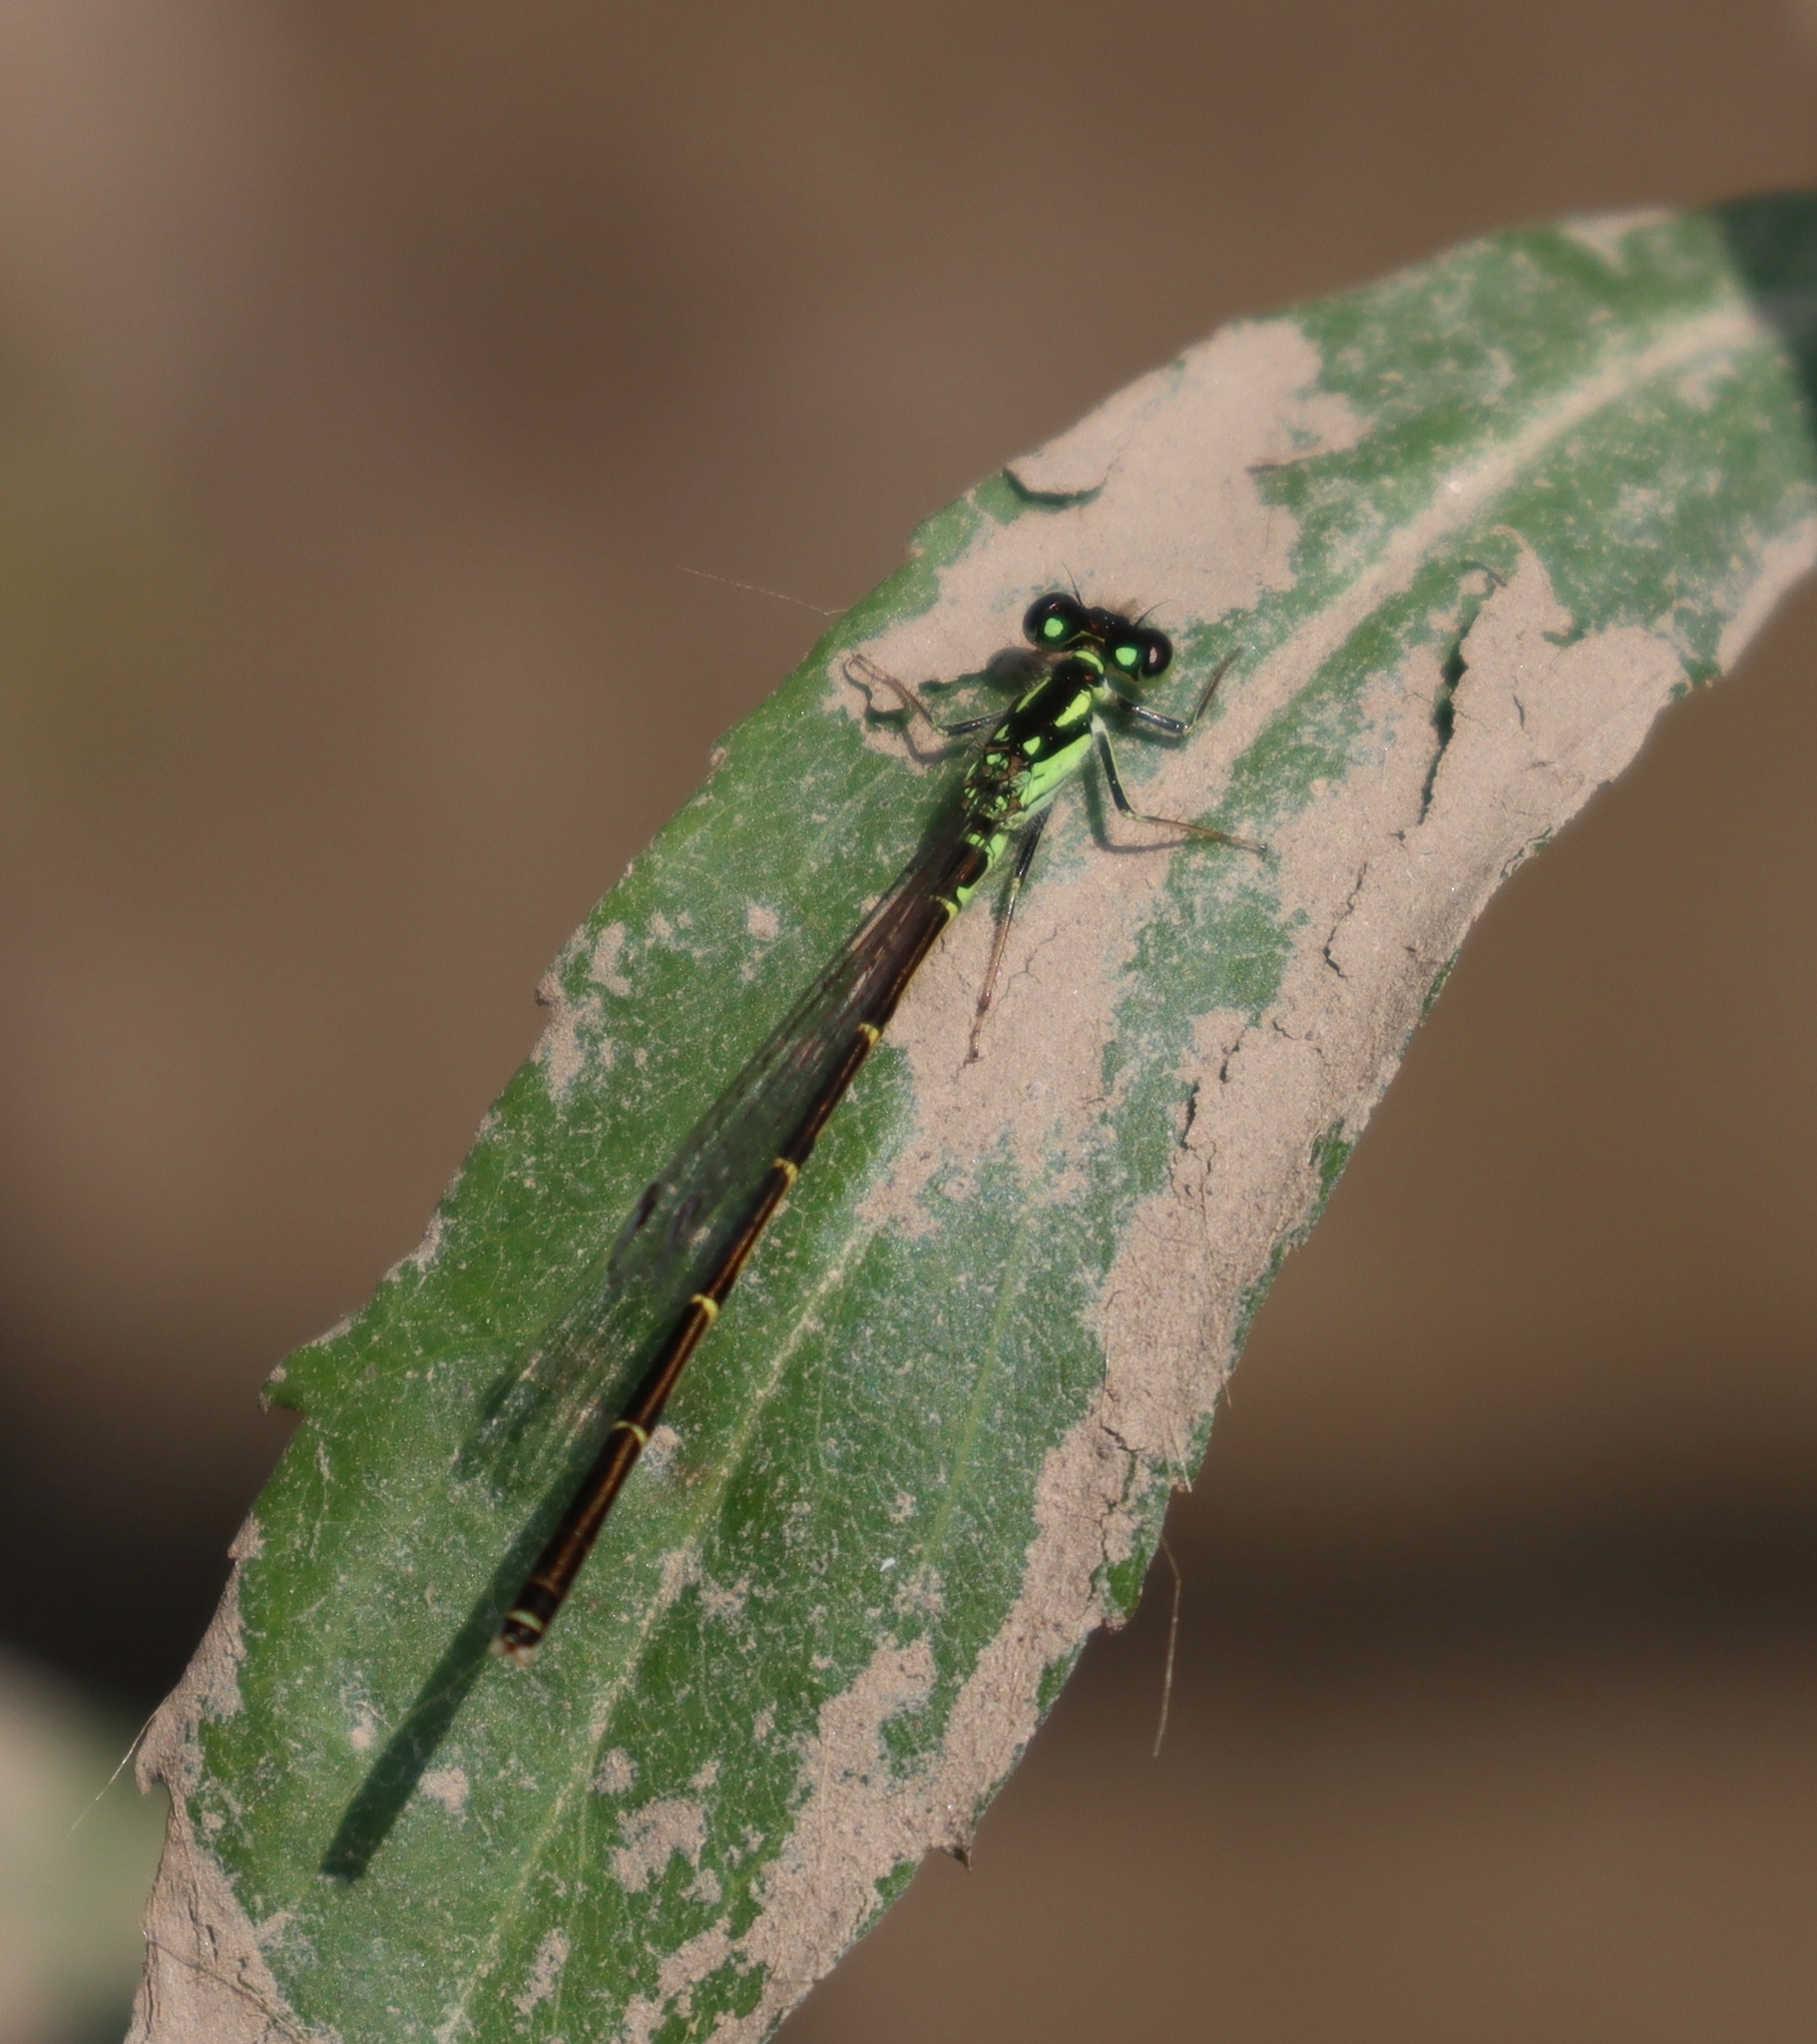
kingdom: Animalia
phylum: Arthropoda
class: Insecta
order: Odonata
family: Coenagrionidae
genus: Ischnura
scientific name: Ischnura posita
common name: Fragile forktail
